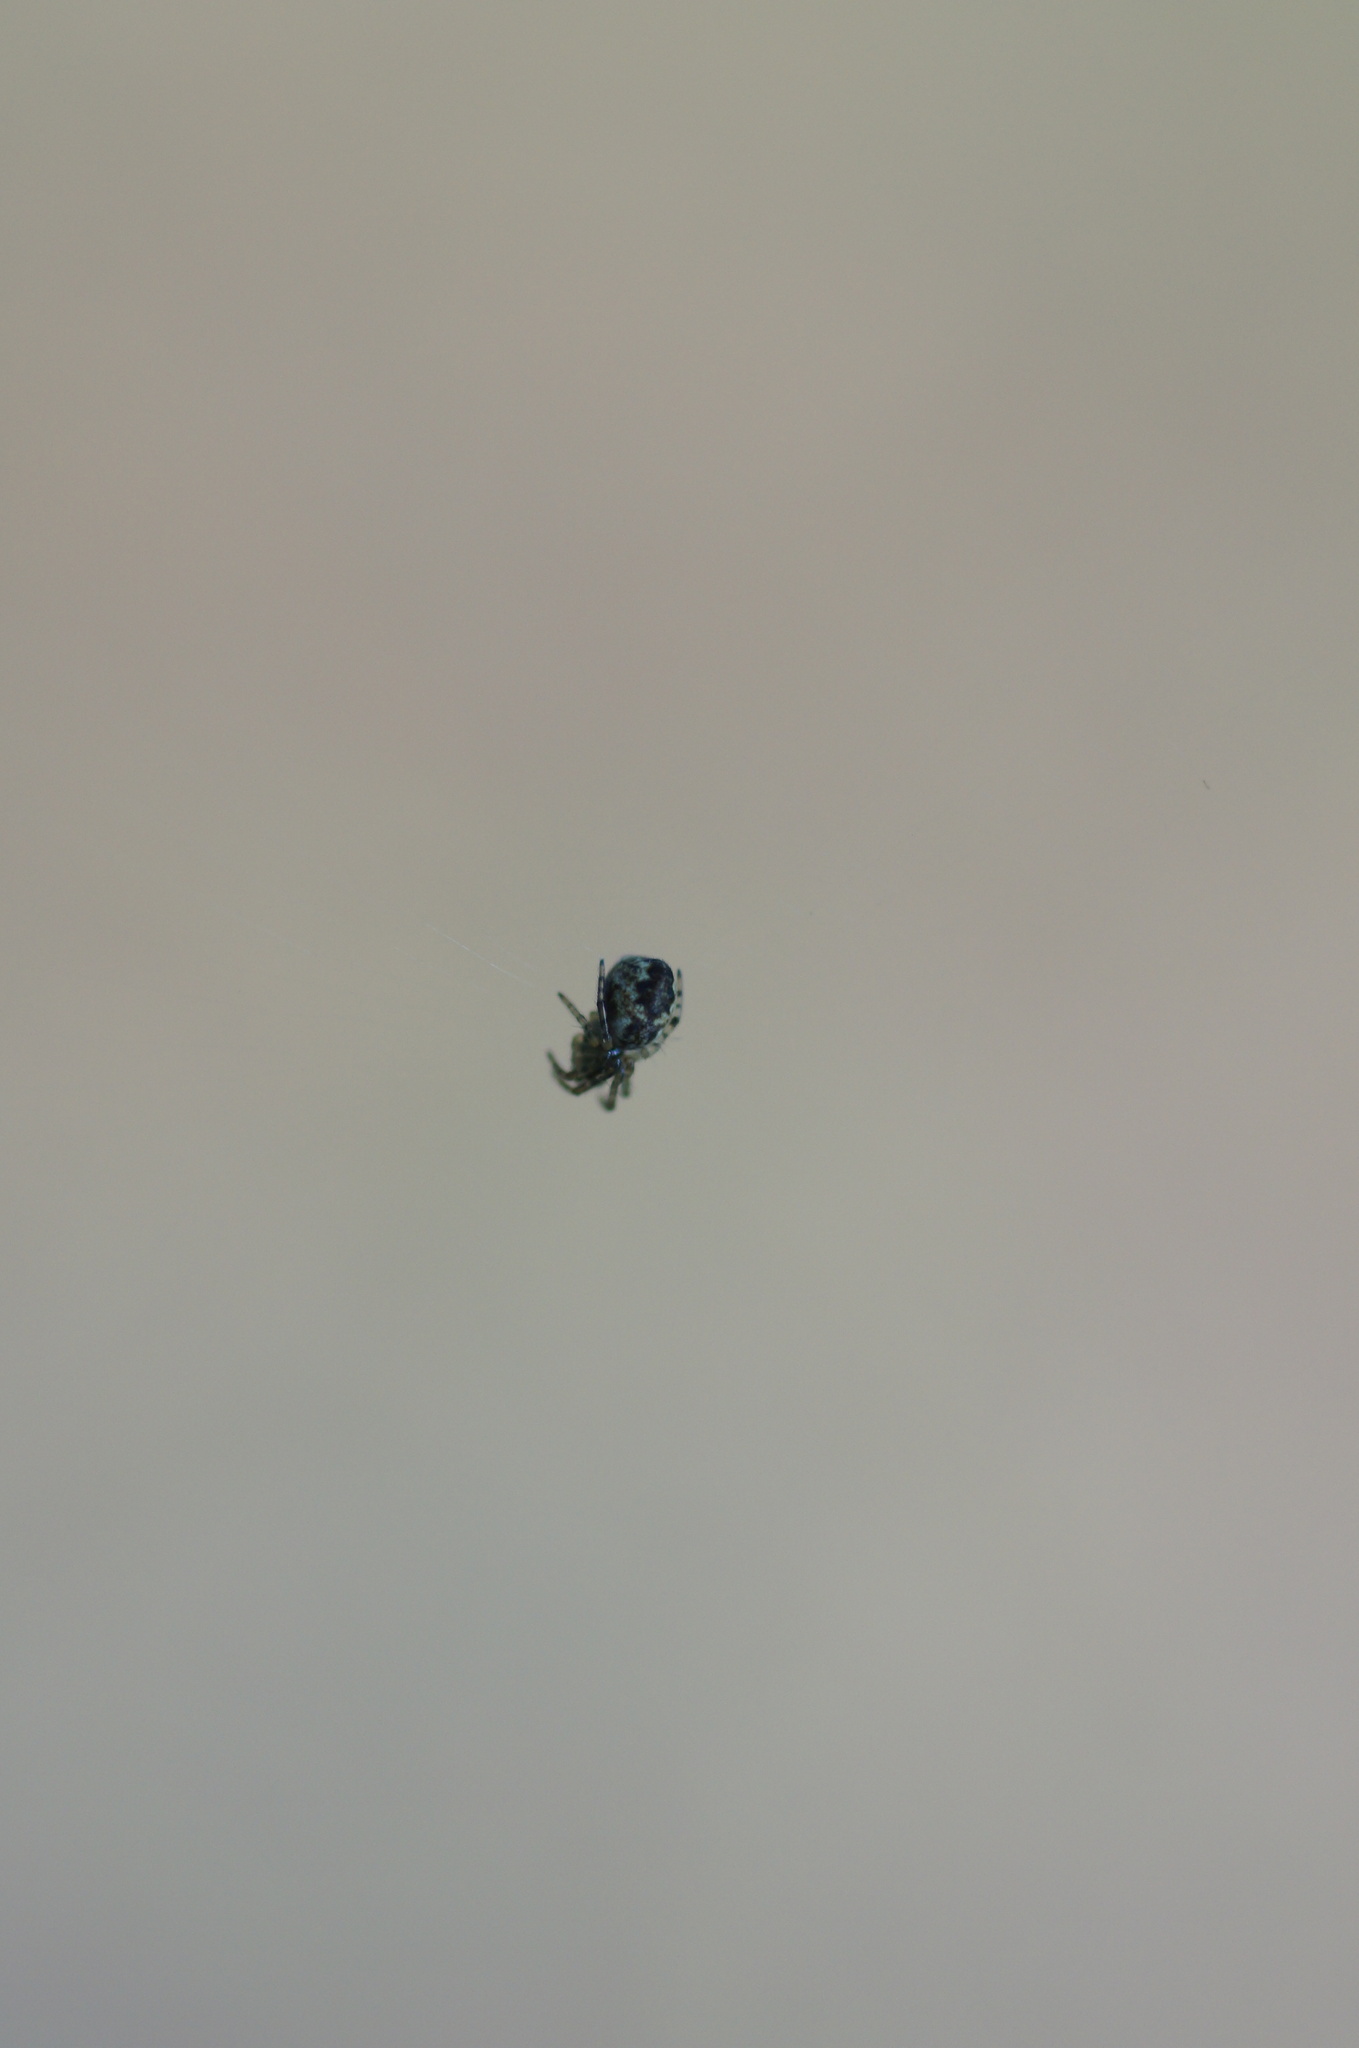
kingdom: Animalia
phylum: Arthropoda
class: Arachnida
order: Araneae
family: Araneidae
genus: Cyclosa
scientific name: Cyclosa conica
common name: Conical trashline orbweaver
